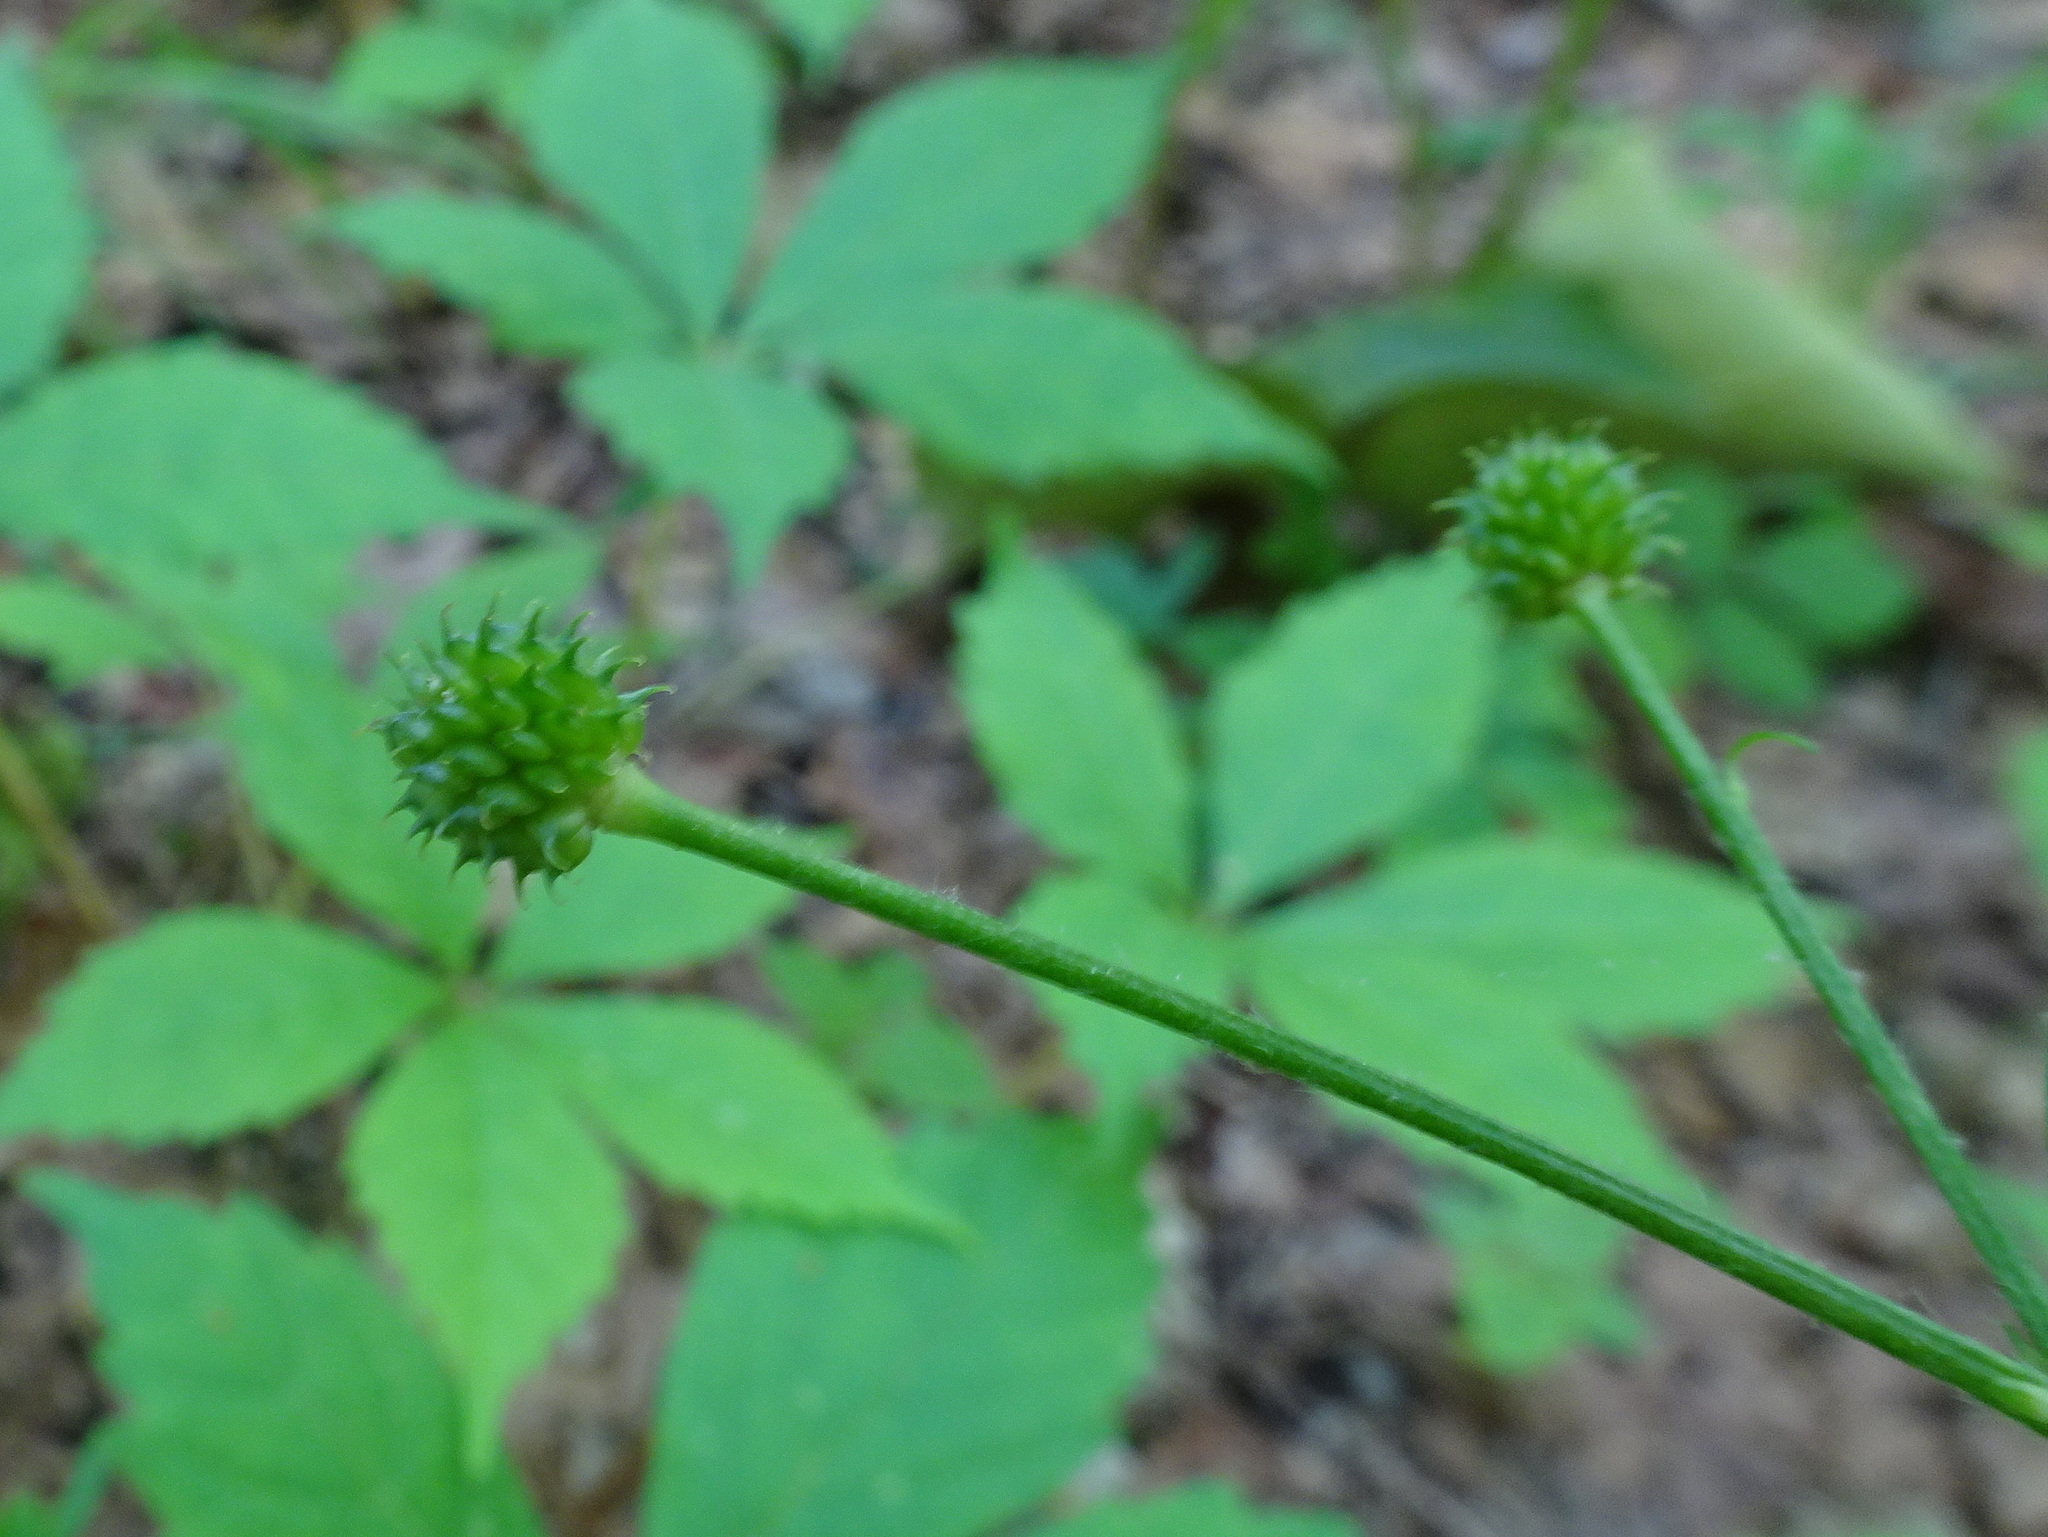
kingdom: Plantae
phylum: Tracheophyta
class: Magnoliopsida
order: Ranunculales
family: Ranunculaceae
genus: Ranunculus
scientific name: Ranunculus recurvatus
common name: Blisterwort
